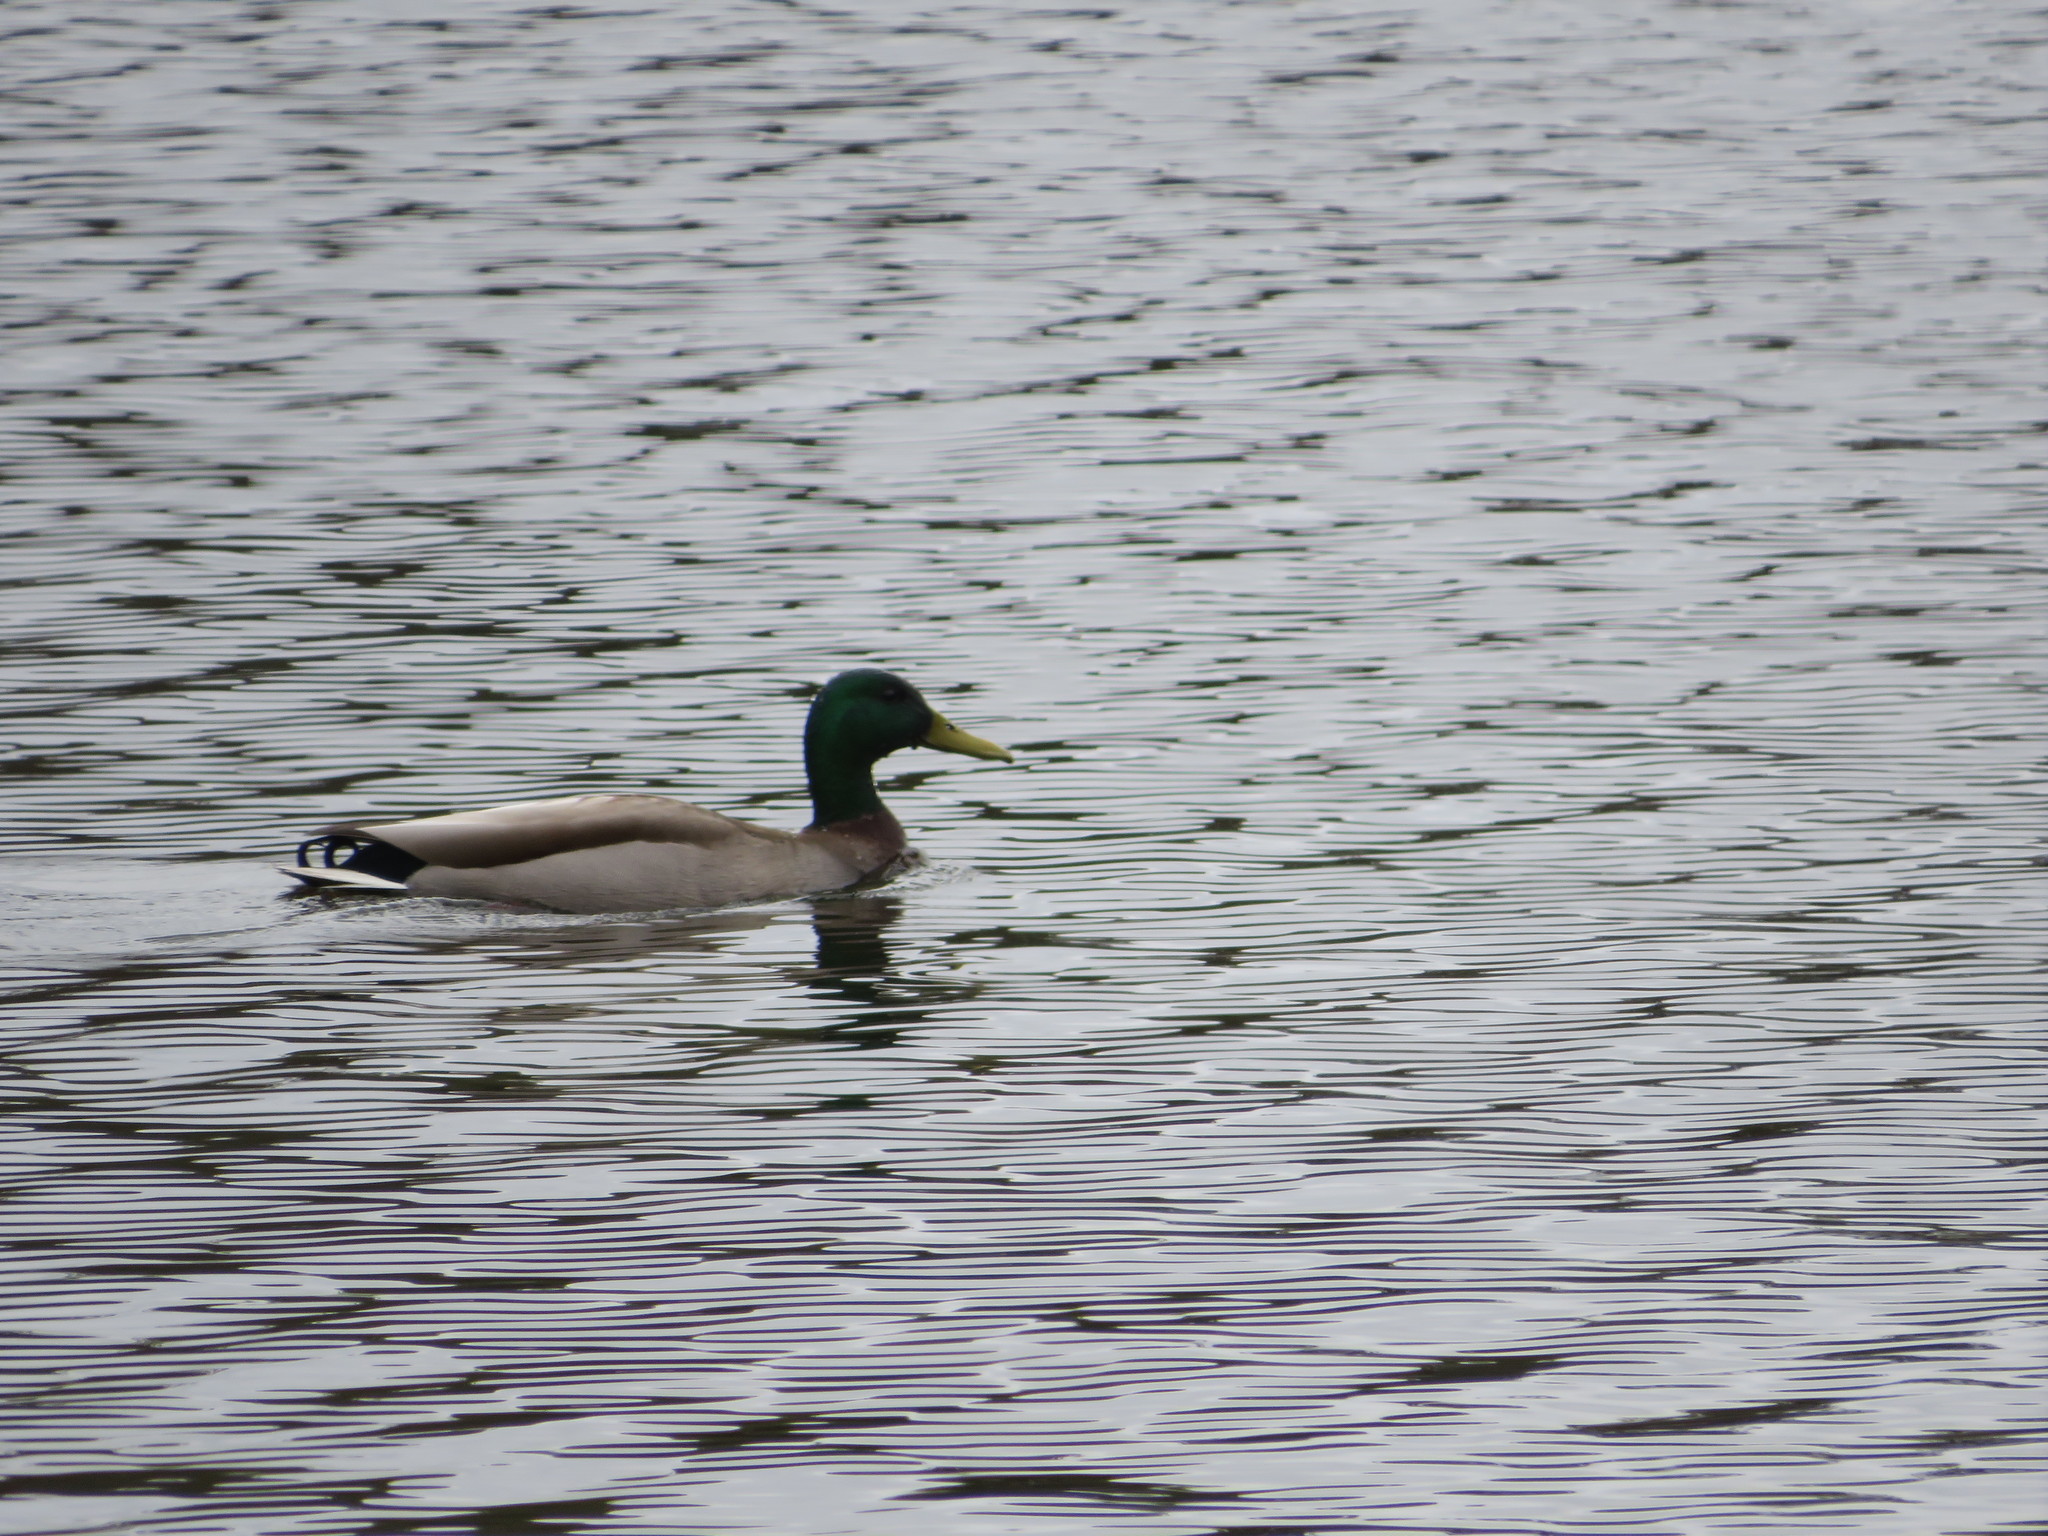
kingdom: Animalia
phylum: Chordata
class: Aves
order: Anseriformes
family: Anatidae
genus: Anas
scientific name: Anas platyrhynchos
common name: Mallard
